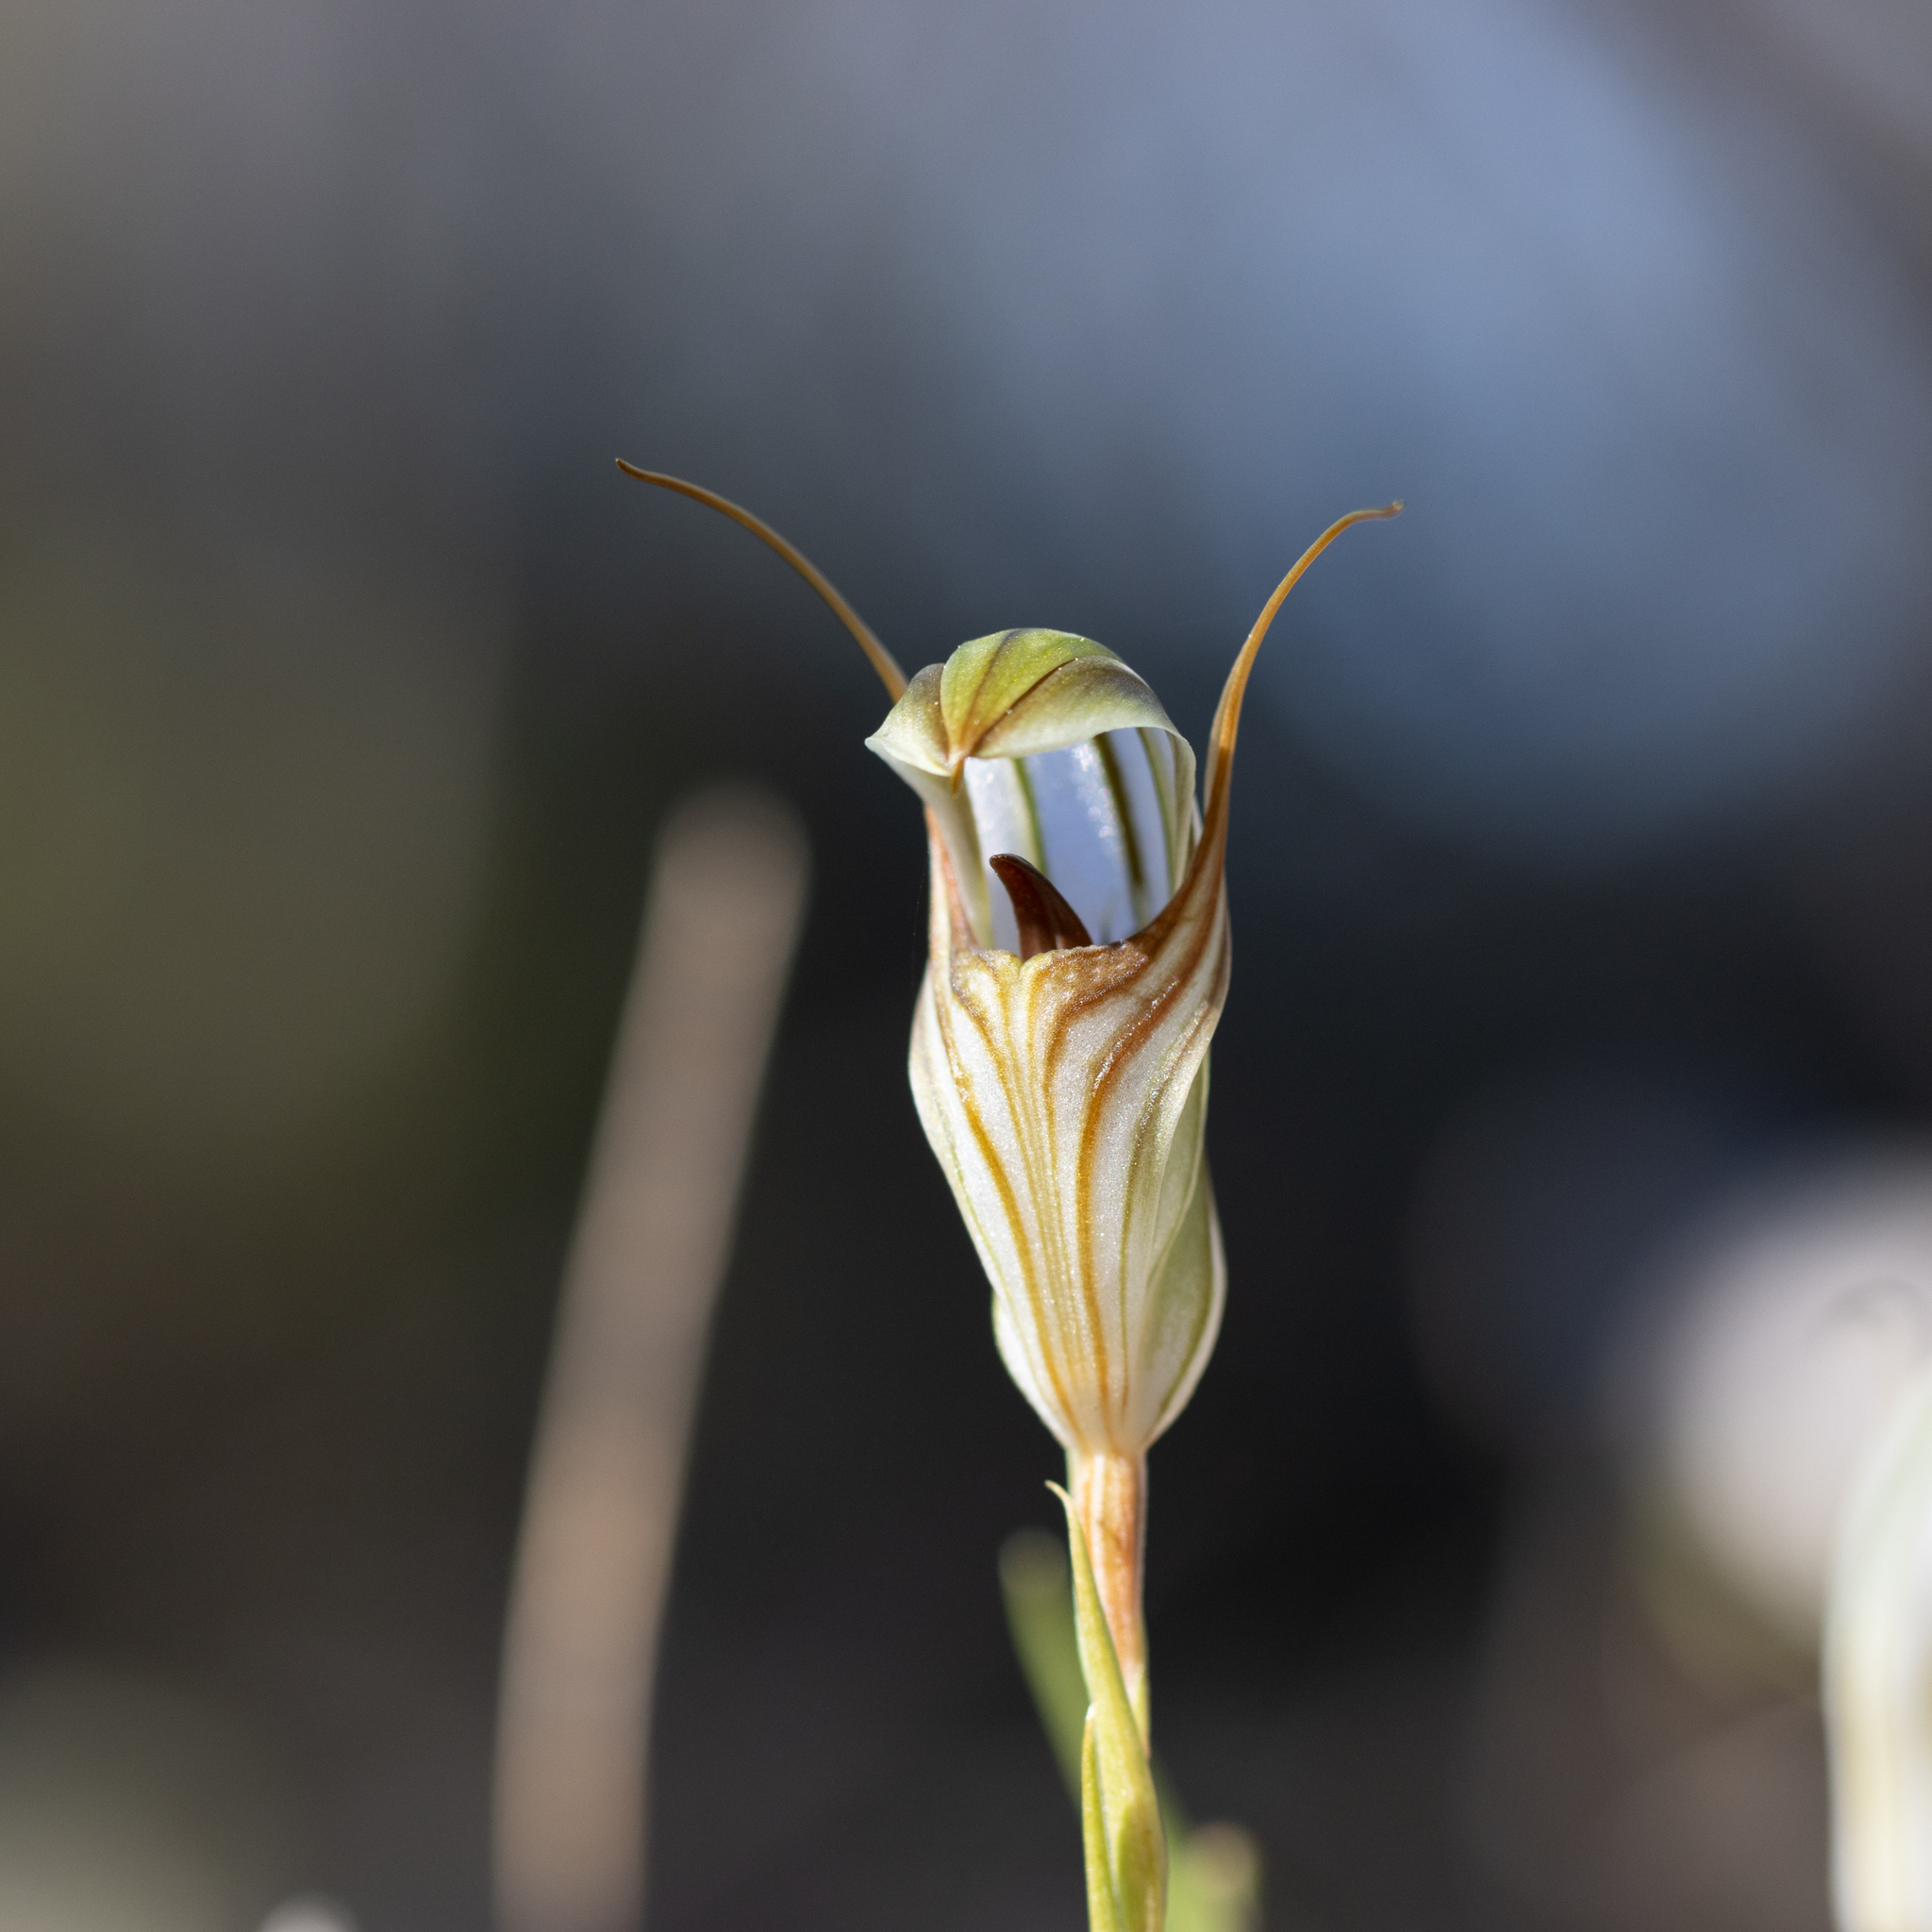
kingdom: Plantae
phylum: Tracheophyta
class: Liliopsida
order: Asparagales
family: Orchidaceae
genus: Pterostylis
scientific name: Pterostylis erythroconcha
